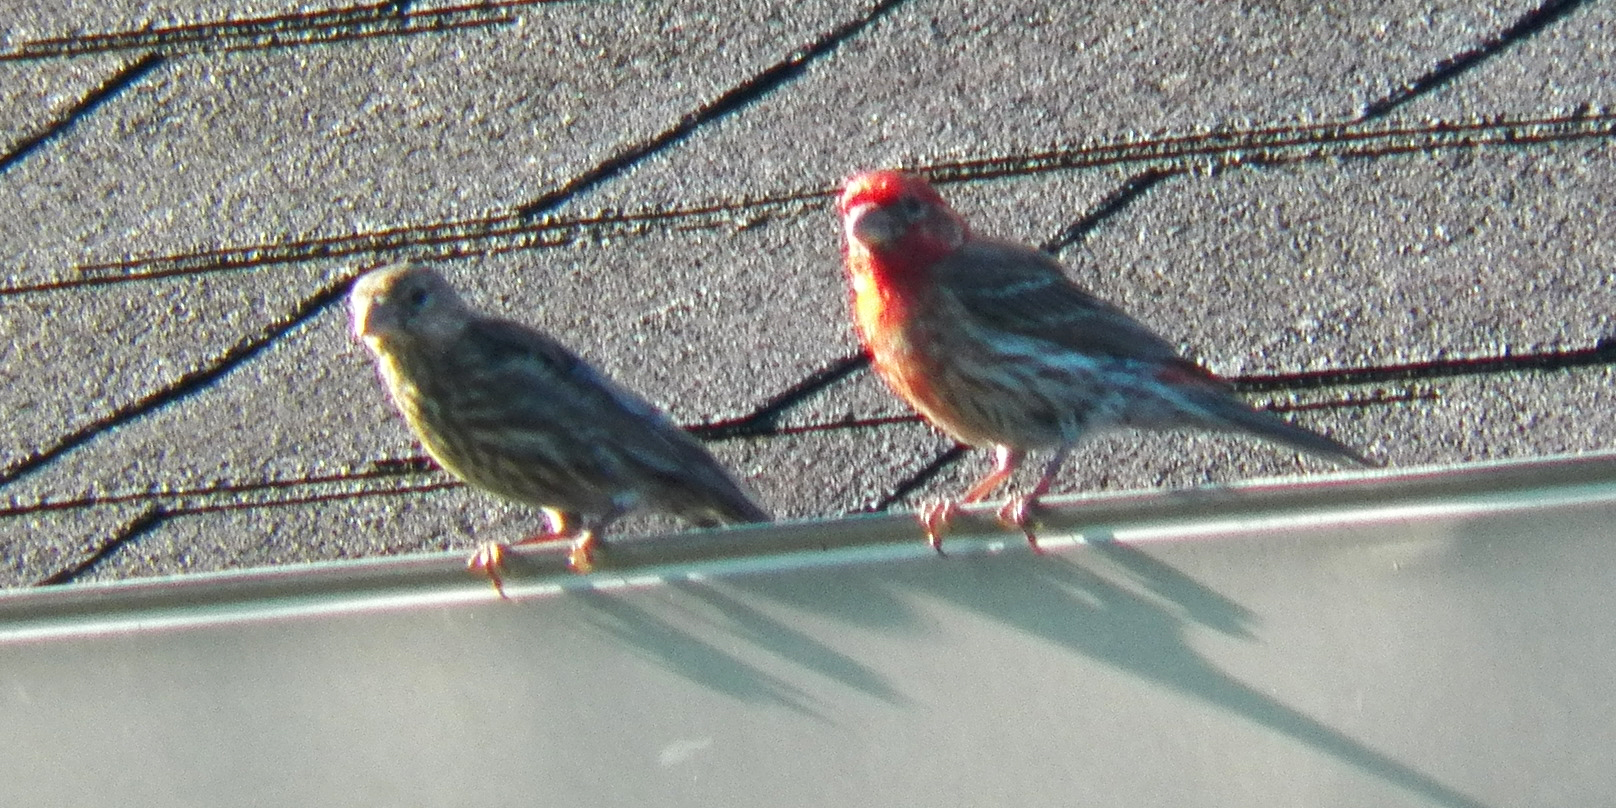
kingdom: Animalia
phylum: Chordata
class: Aves
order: Passeriformes
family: Fringillidae
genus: Haemorhous
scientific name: Haemorhous mexicanus
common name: House finch
